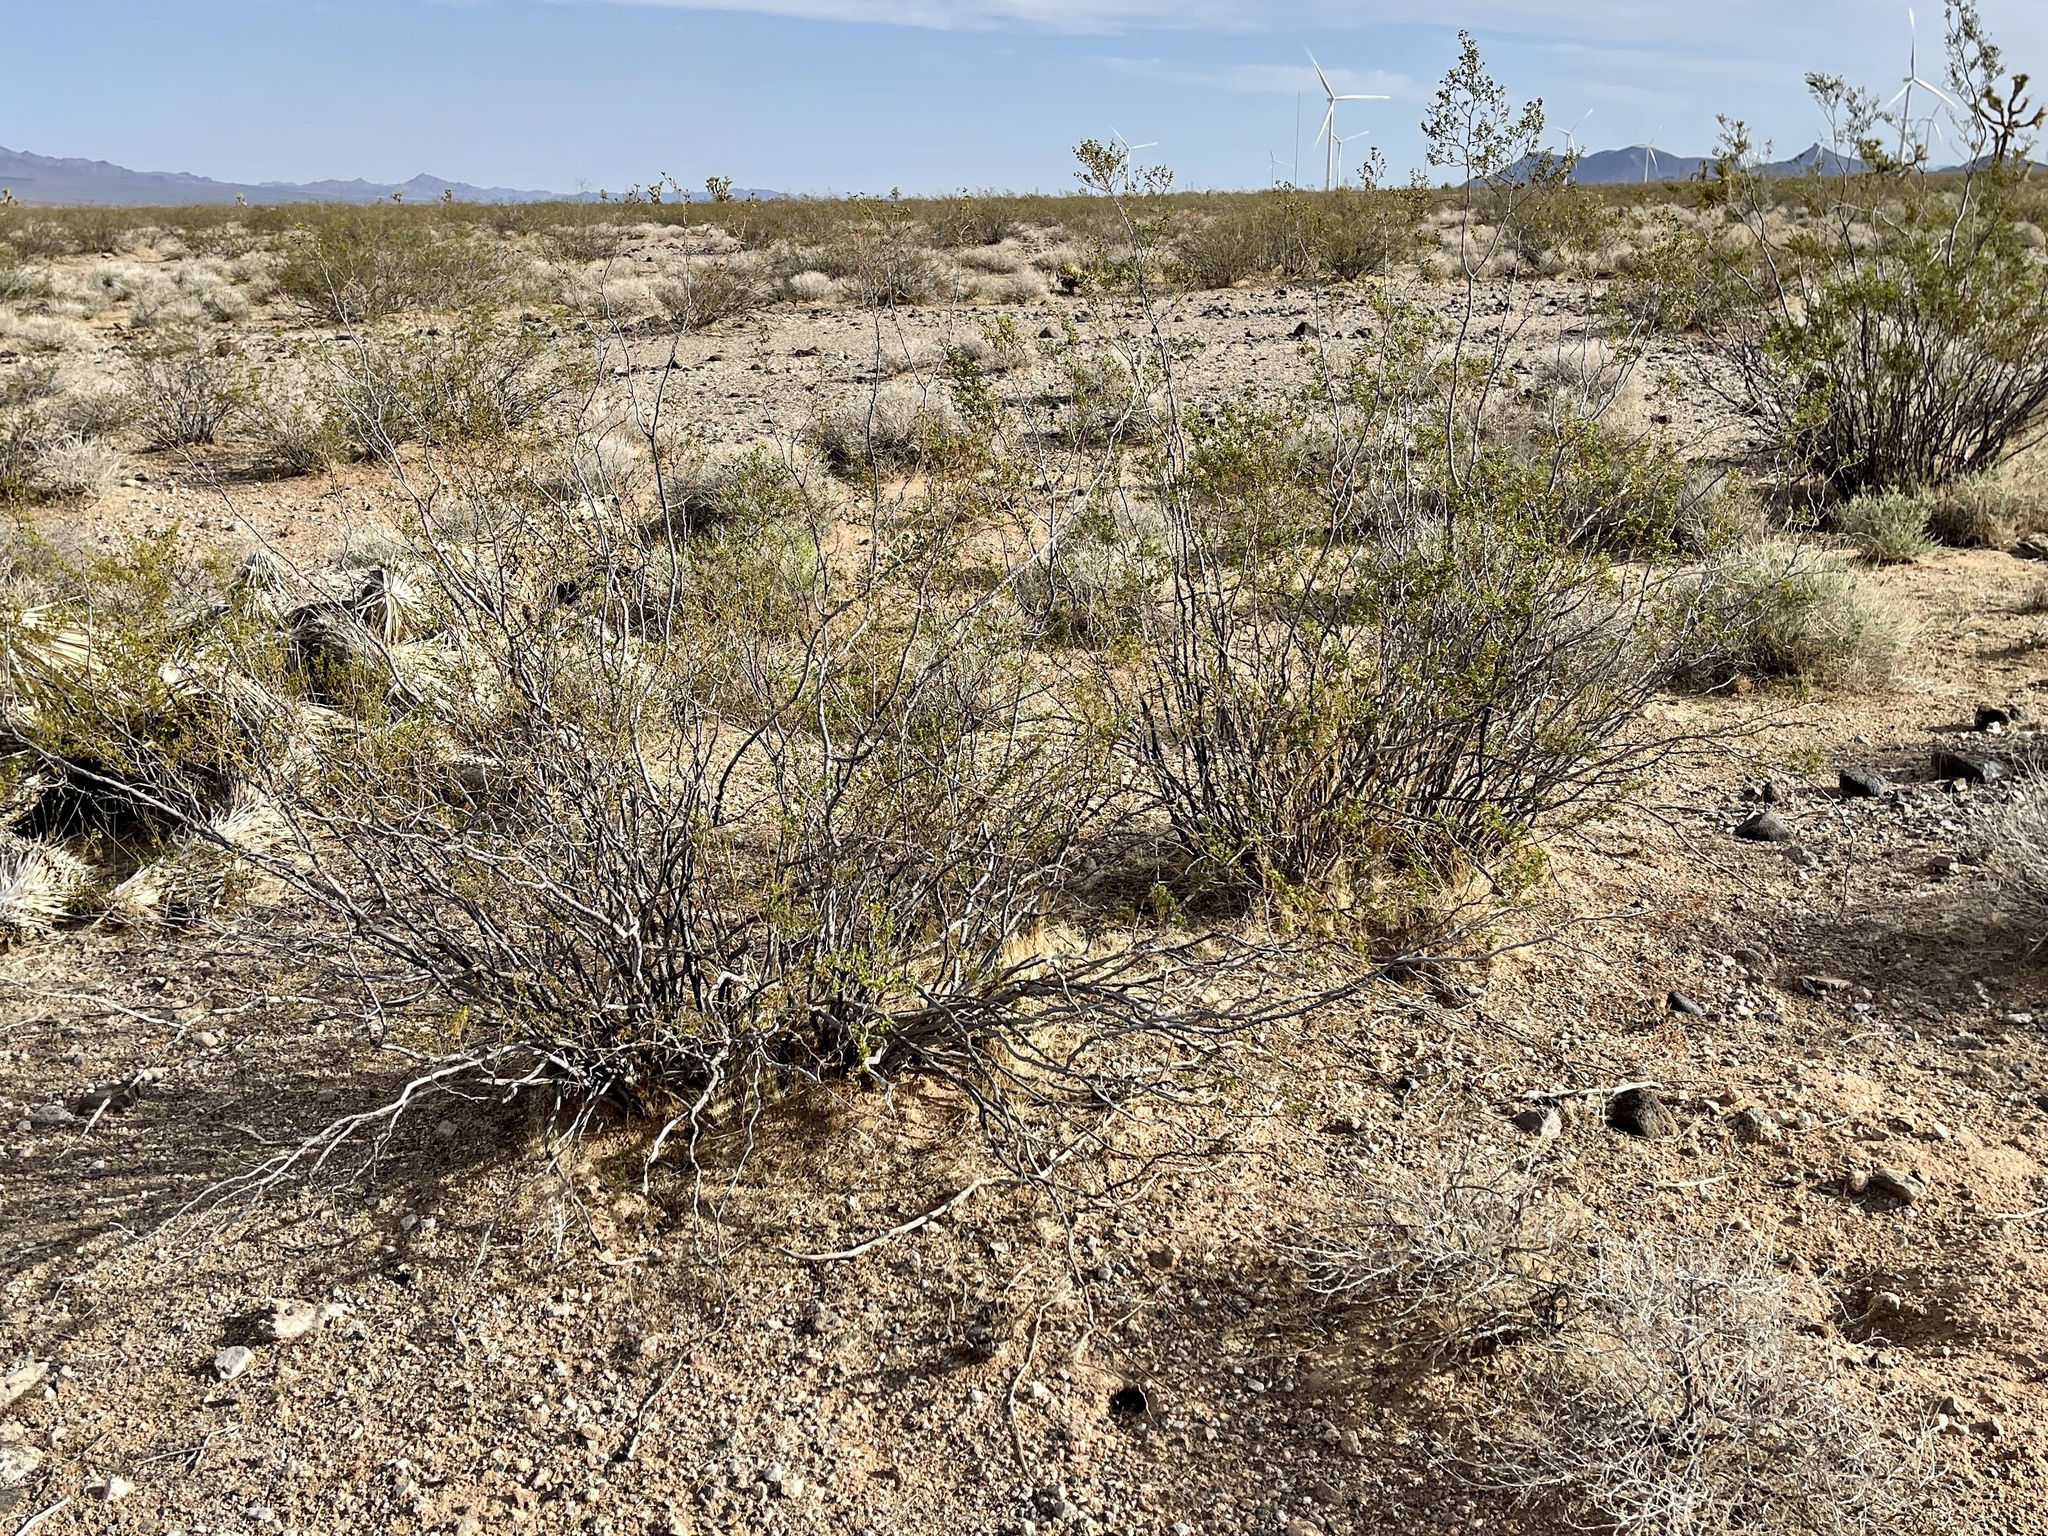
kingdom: Plantae
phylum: Tracheophyta
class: Magnoliopsida
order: Zygophyllales
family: Zygophyllaceae
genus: Larrea
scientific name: Larrea tridentata
